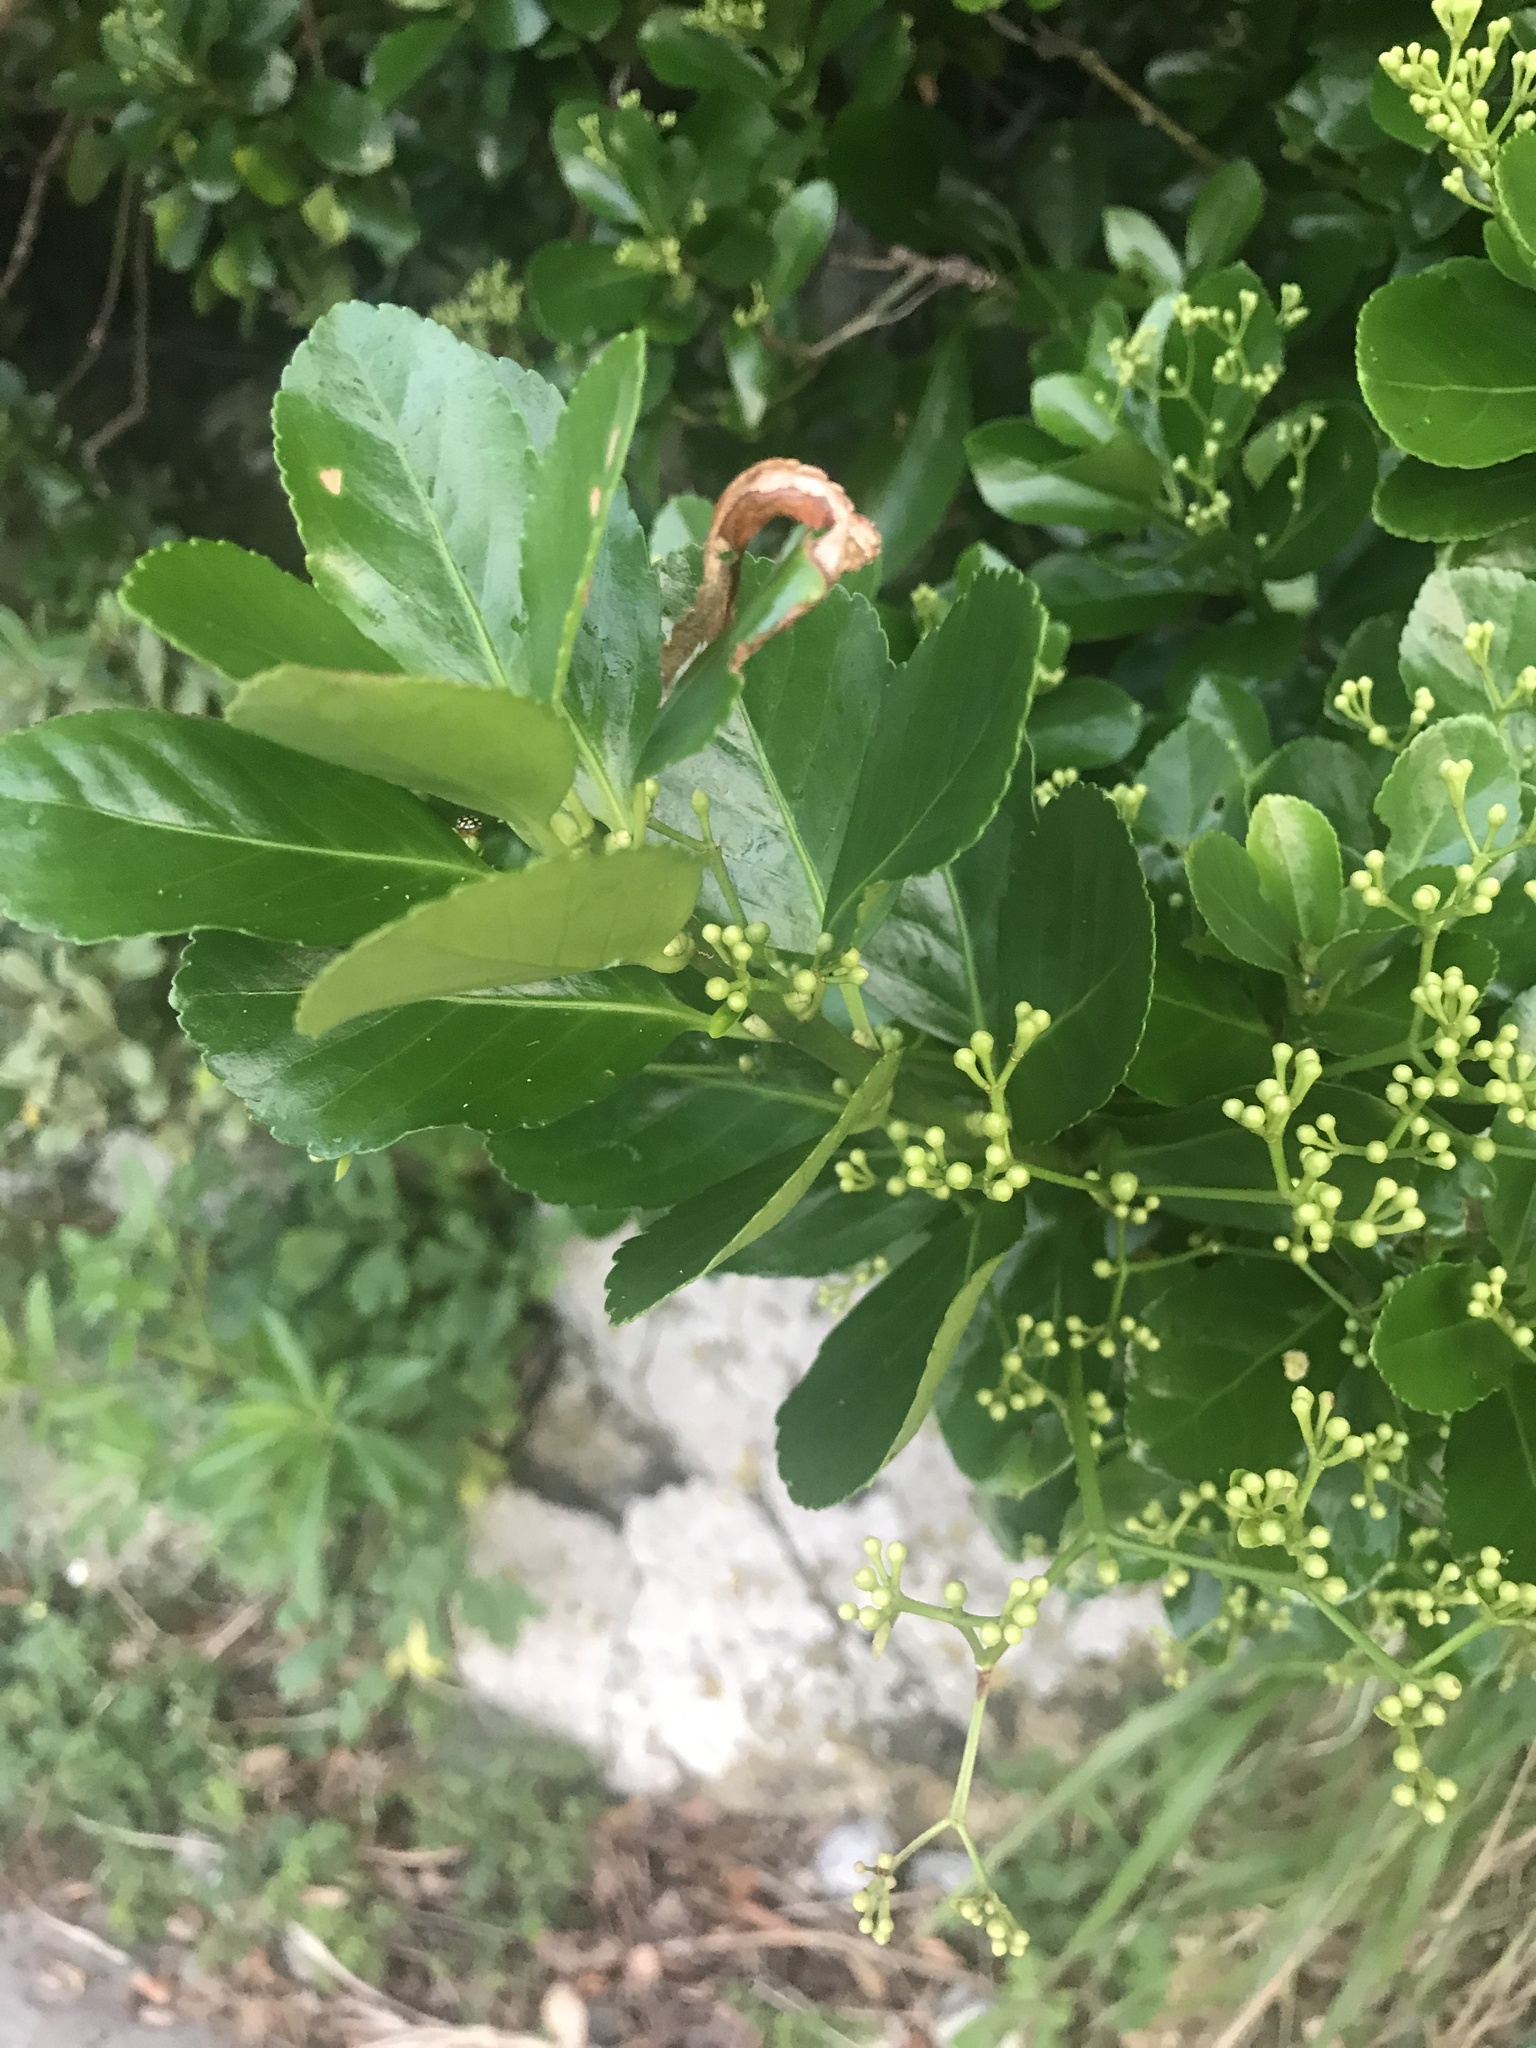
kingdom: Plantae
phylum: Tracheophyta
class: Magnoliopsida
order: Celastrales
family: Celastraceae
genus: Euonymus
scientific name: Euonymus japonicus
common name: Japanese spindletree
